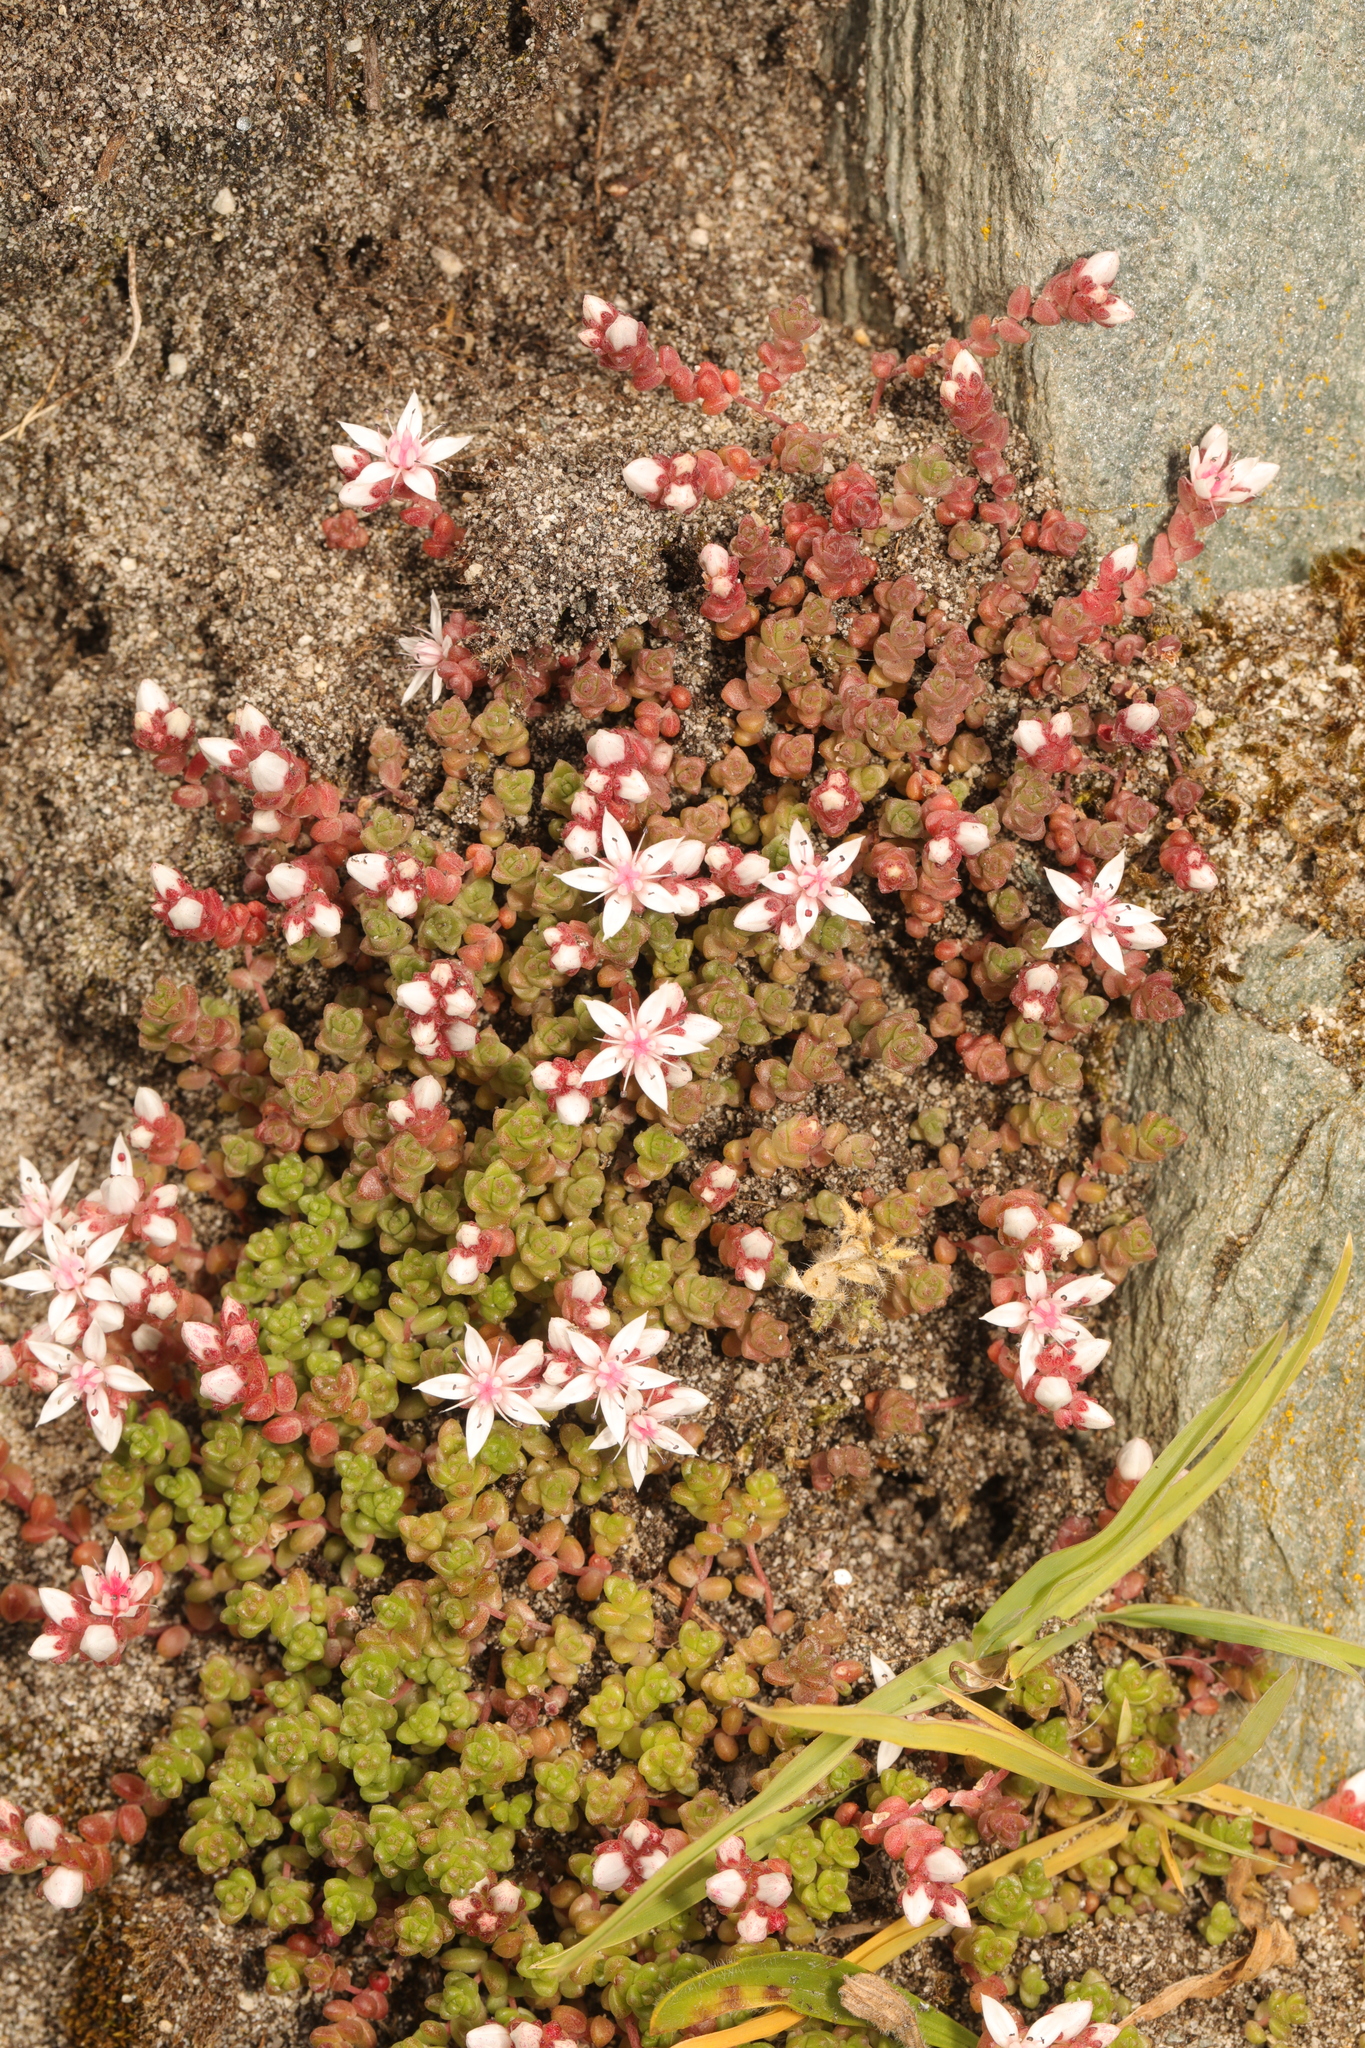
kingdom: Plantae
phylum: Tracheophyta
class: Magnoliopsida
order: Saxifragales
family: Crassulaceae
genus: Sedum
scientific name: Sedum anglicum
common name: English stonecrop
